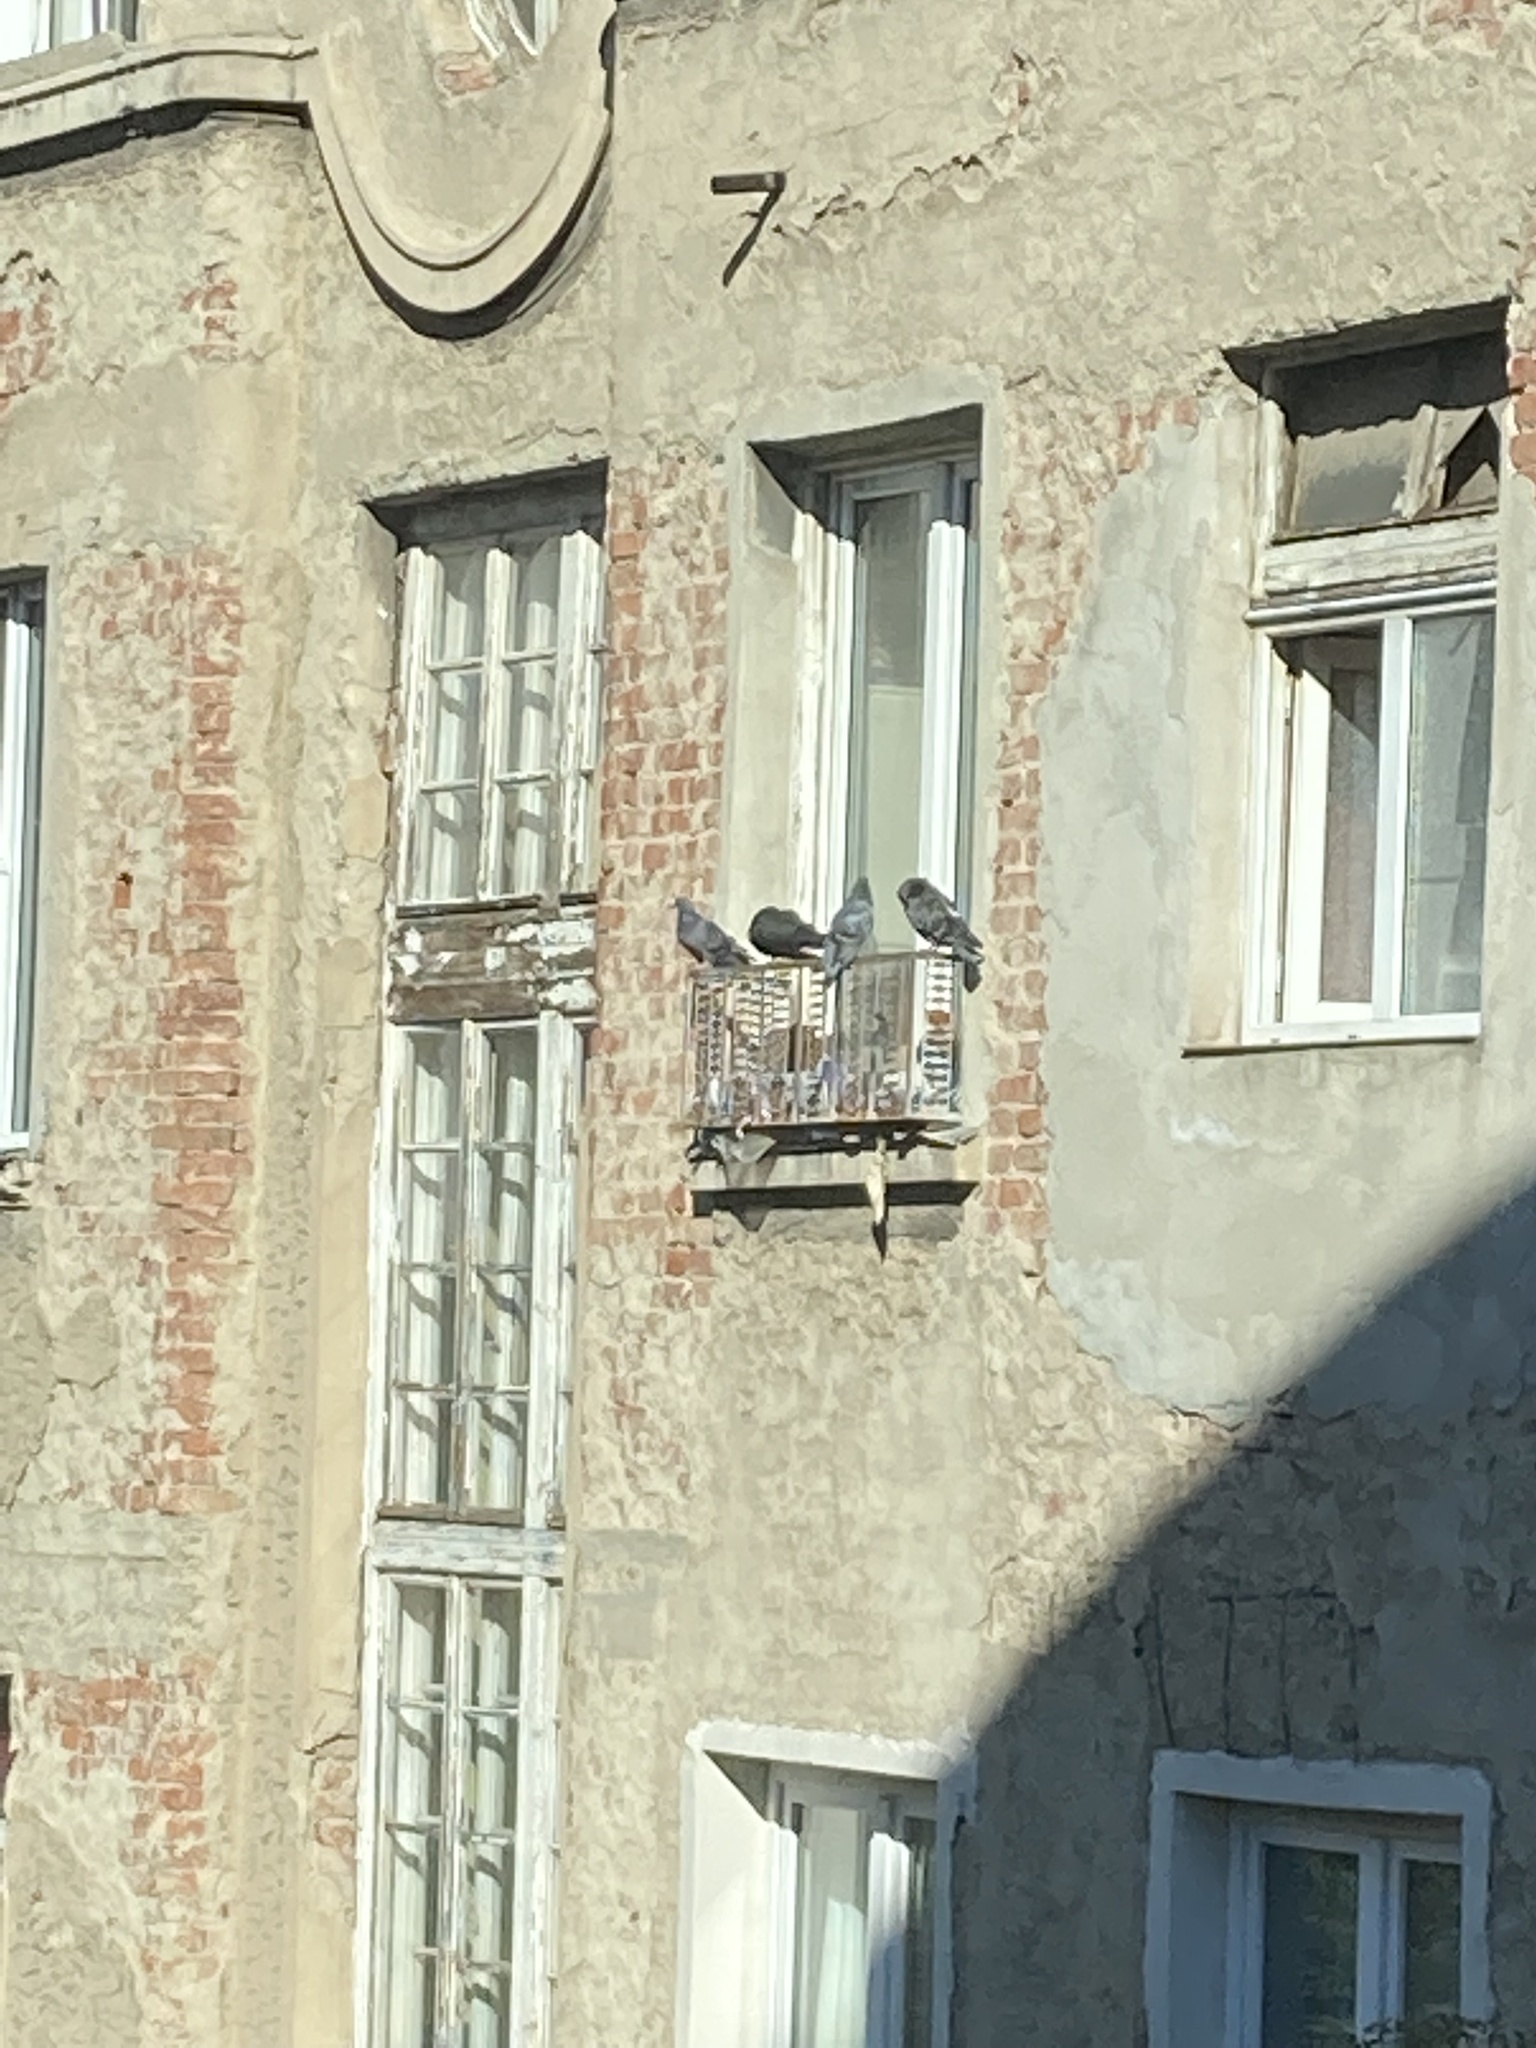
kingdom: Animalia
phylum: Chordata
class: Aves
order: Columbiformes
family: Columbidae
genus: Columba
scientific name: Columba livia
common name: Rock pigeon
